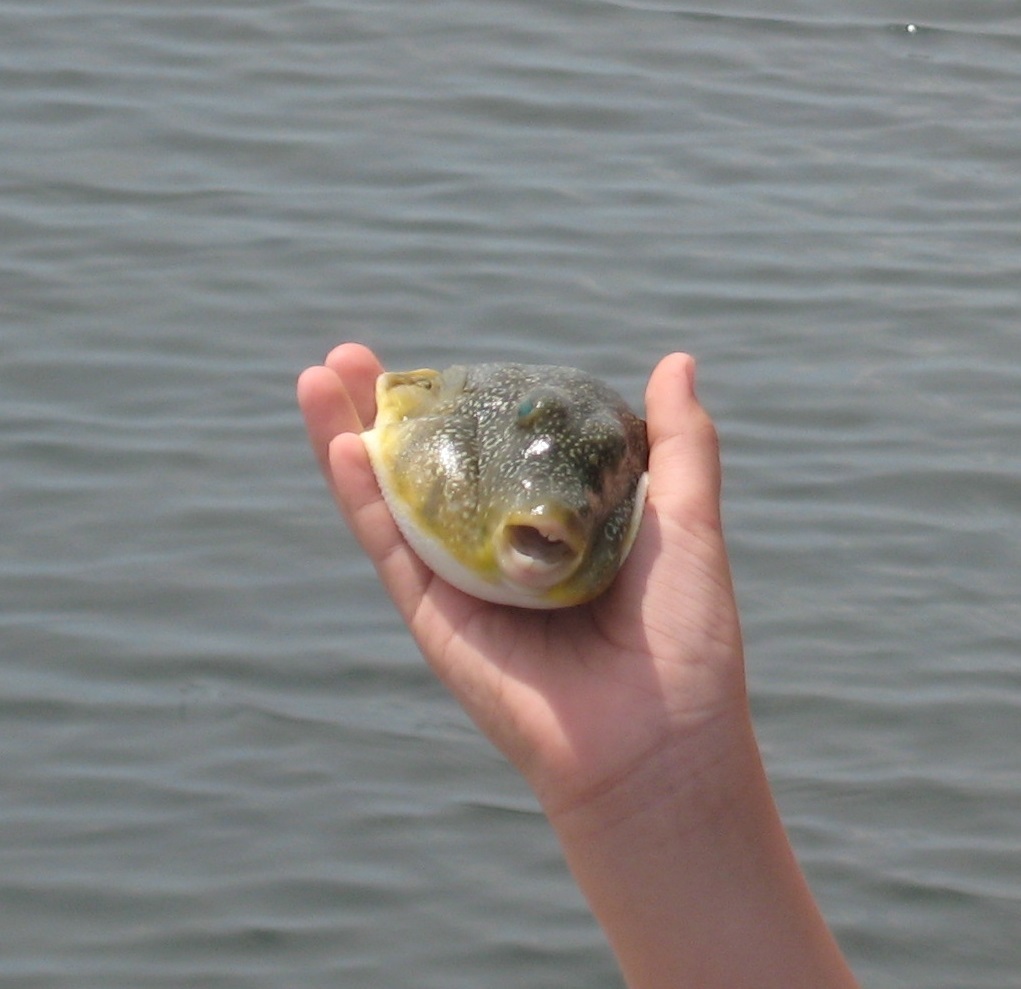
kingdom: Animalia
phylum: Chordata
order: Tetraodontiformes
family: Tetraodontidae
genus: Sphoeroides
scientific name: Sphoeroides nephelus
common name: Southern puffer
